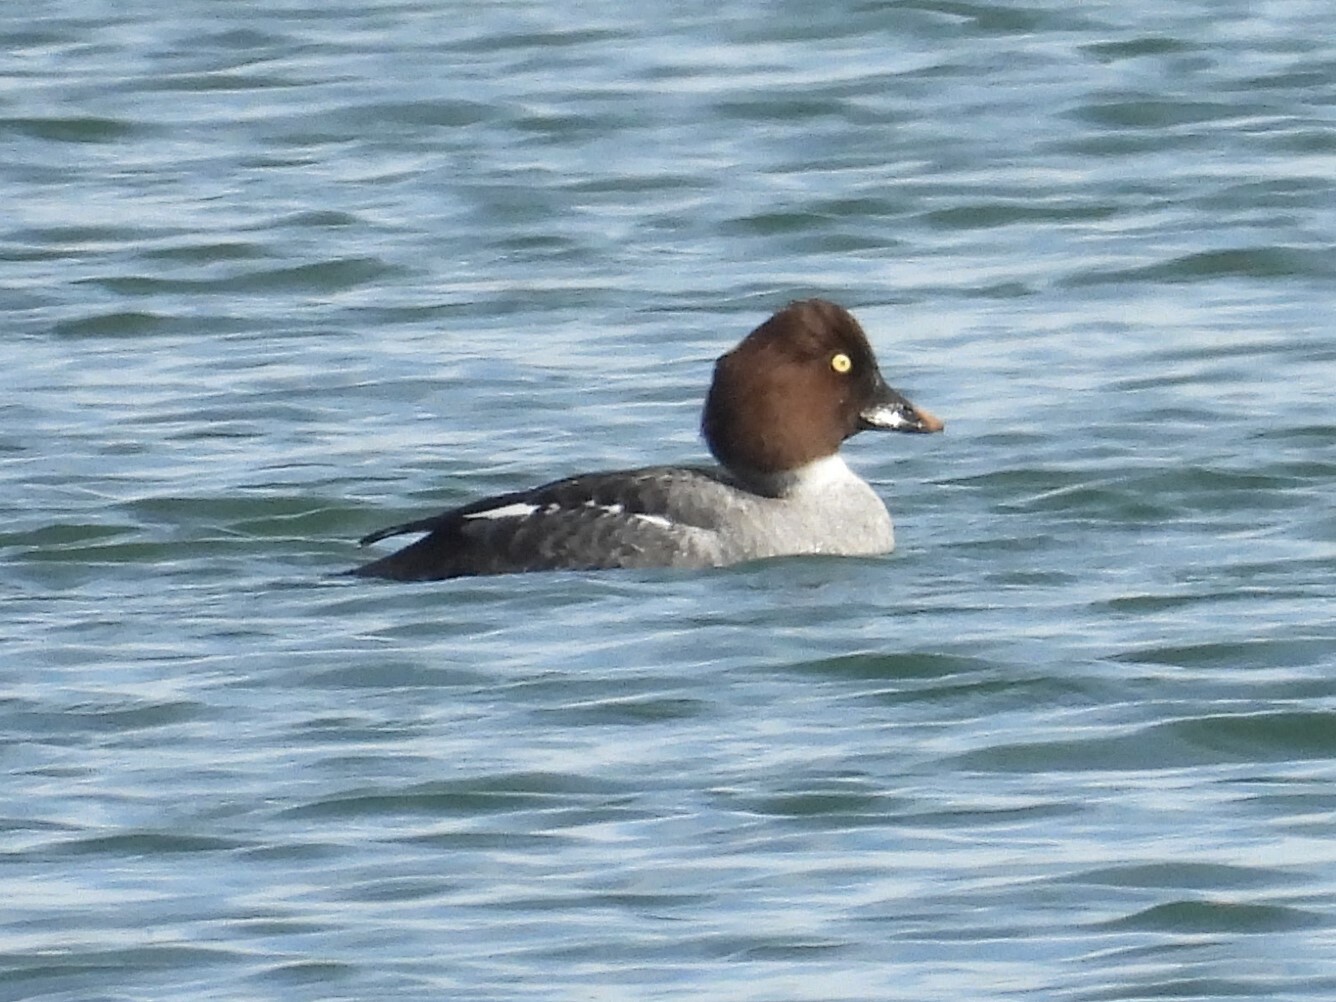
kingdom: Animalia
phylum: Chordata
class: Aves
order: Anseriformes
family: Anatidae
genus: Bucephala
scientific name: Bucephala clangula
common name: Common goldeneye
